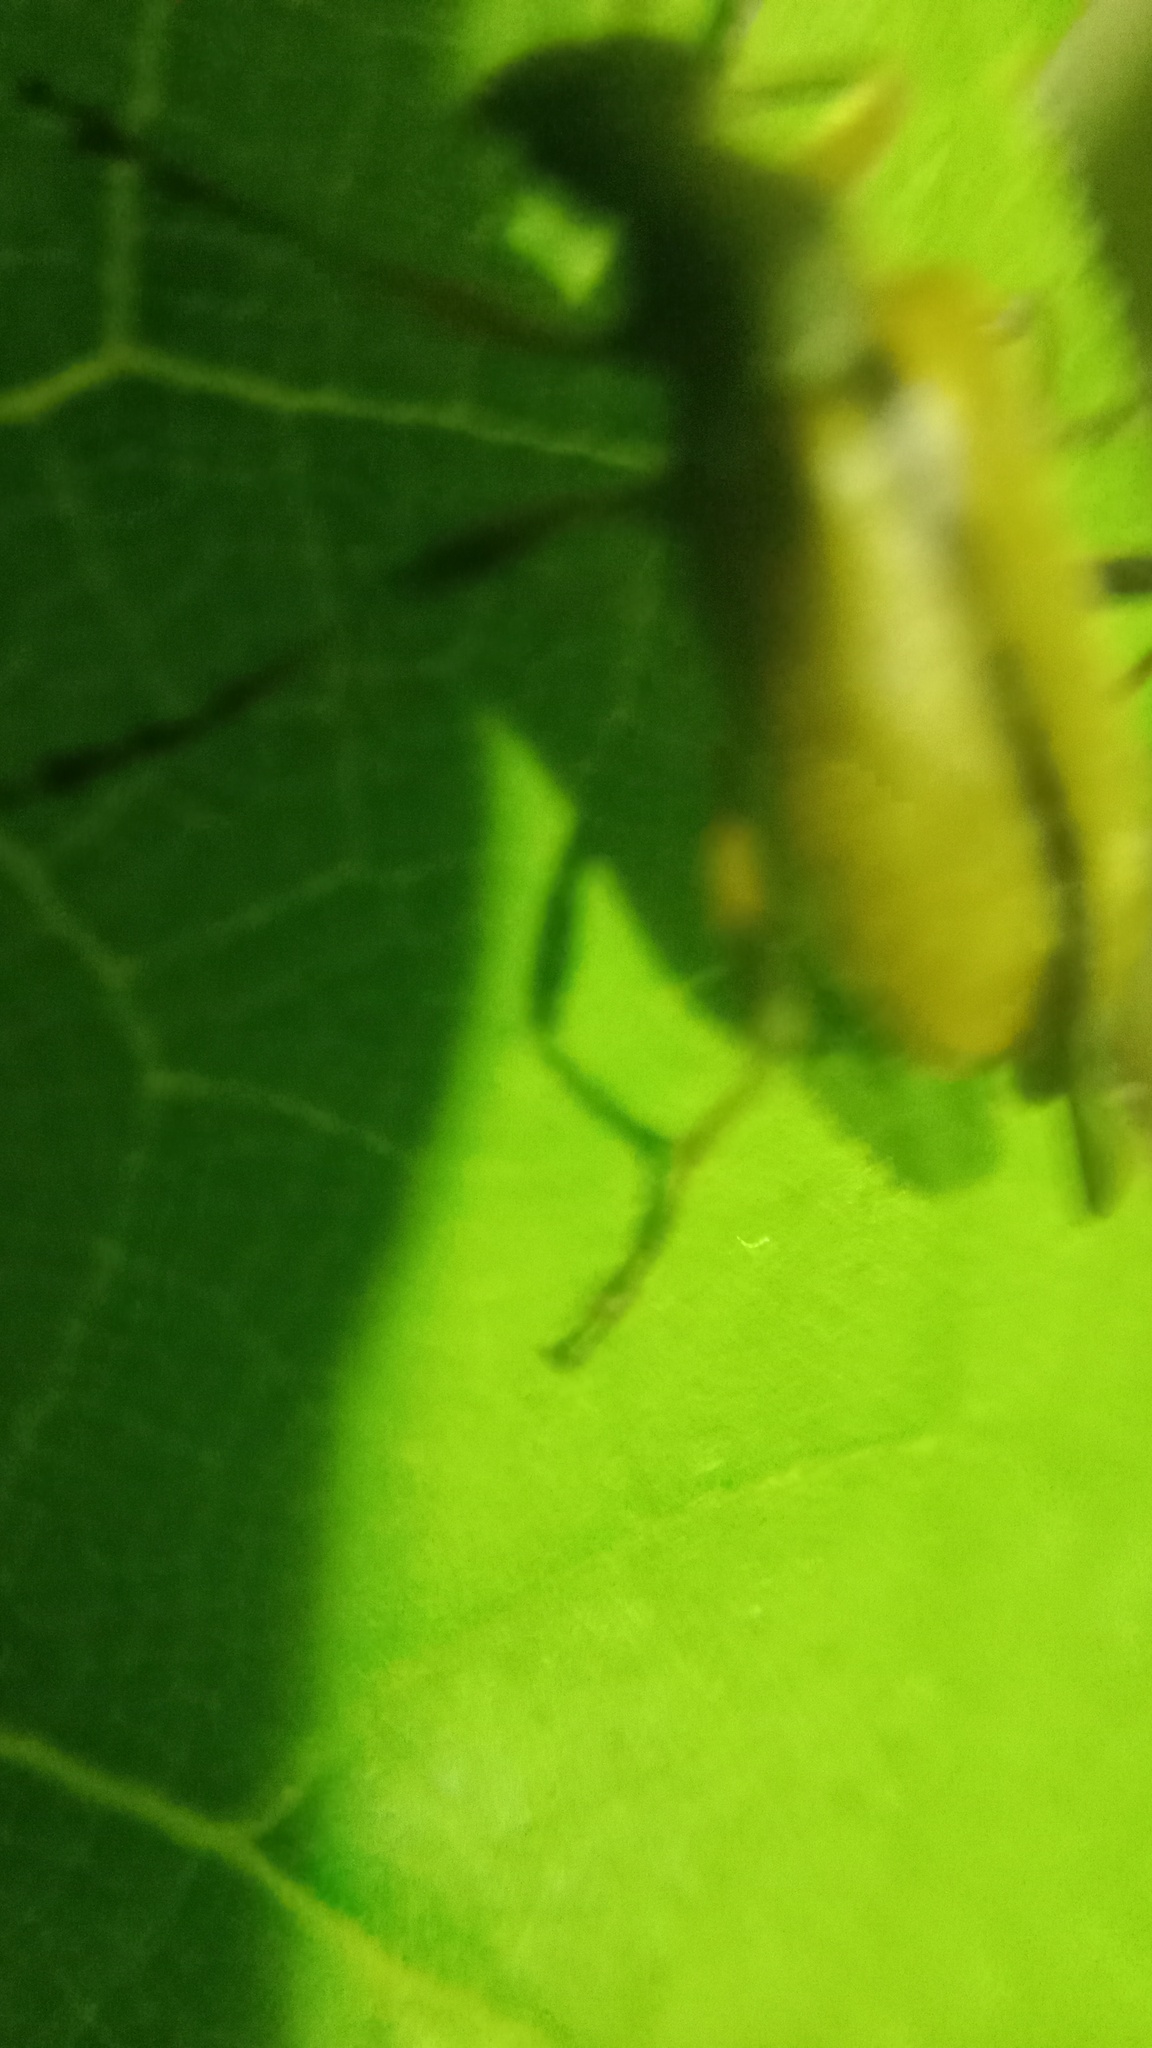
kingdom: Animalia
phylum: Arthropoda
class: Insecta
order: Coleoptera
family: Cerambycidae
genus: Cortodera
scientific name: Cortodera humeralis
